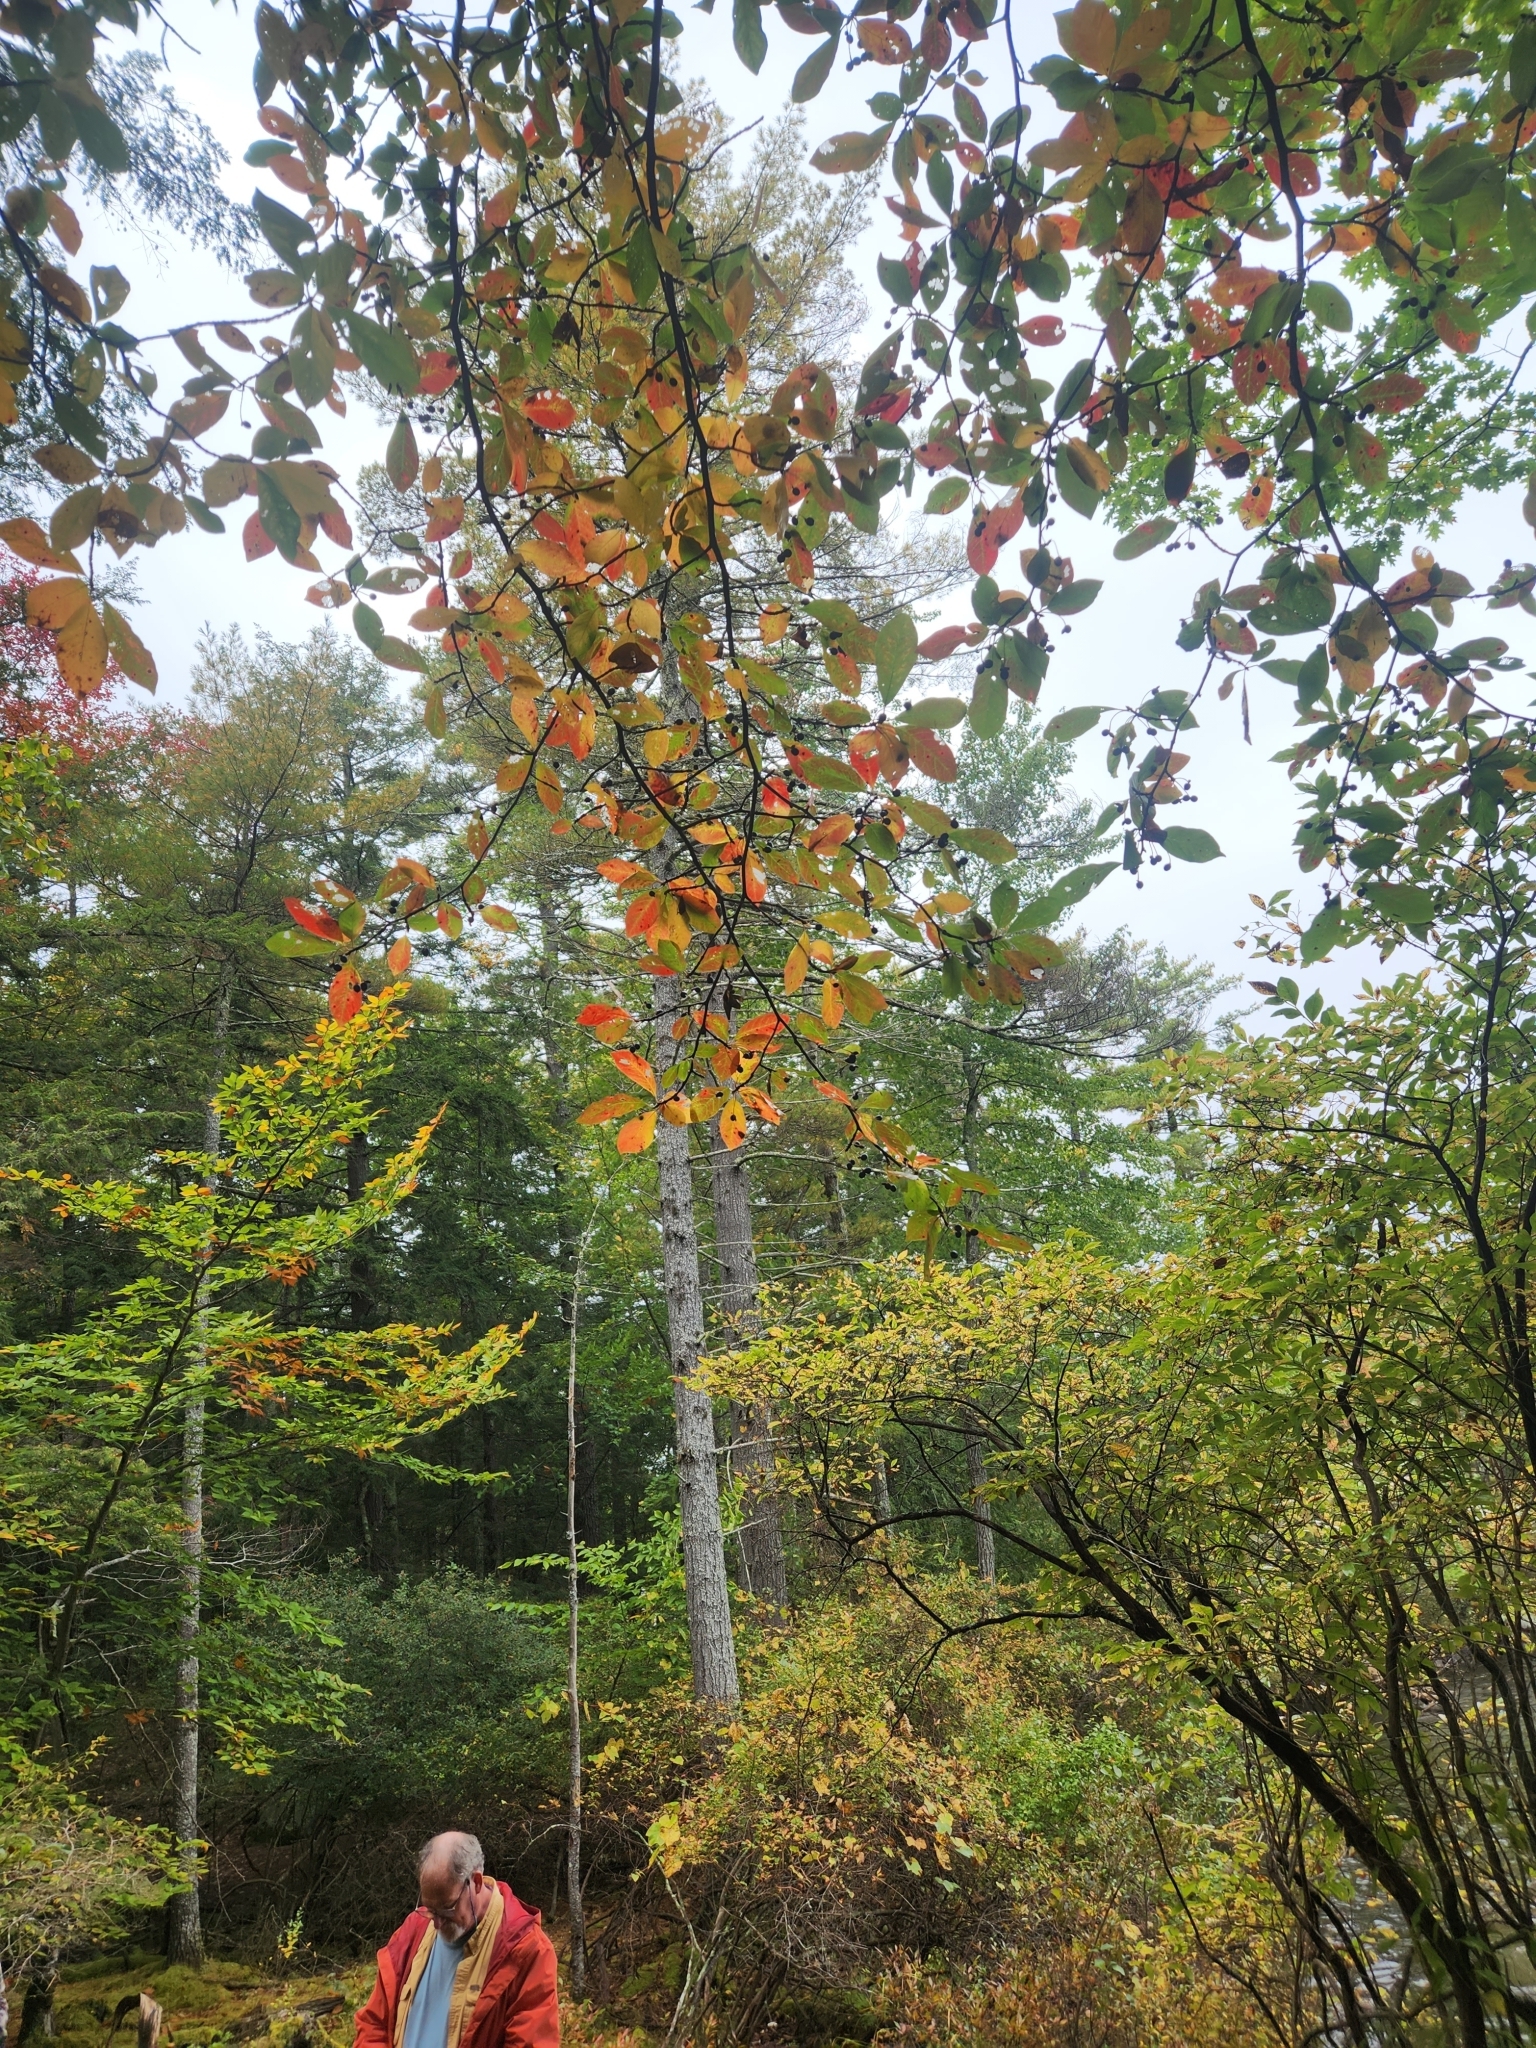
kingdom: Plantae
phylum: Tracheophyta
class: Magnoliopsida
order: Cornales
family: Nyssaceae
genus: Nyssa
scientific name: Nyssa sylvatica
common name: Black tupelo
